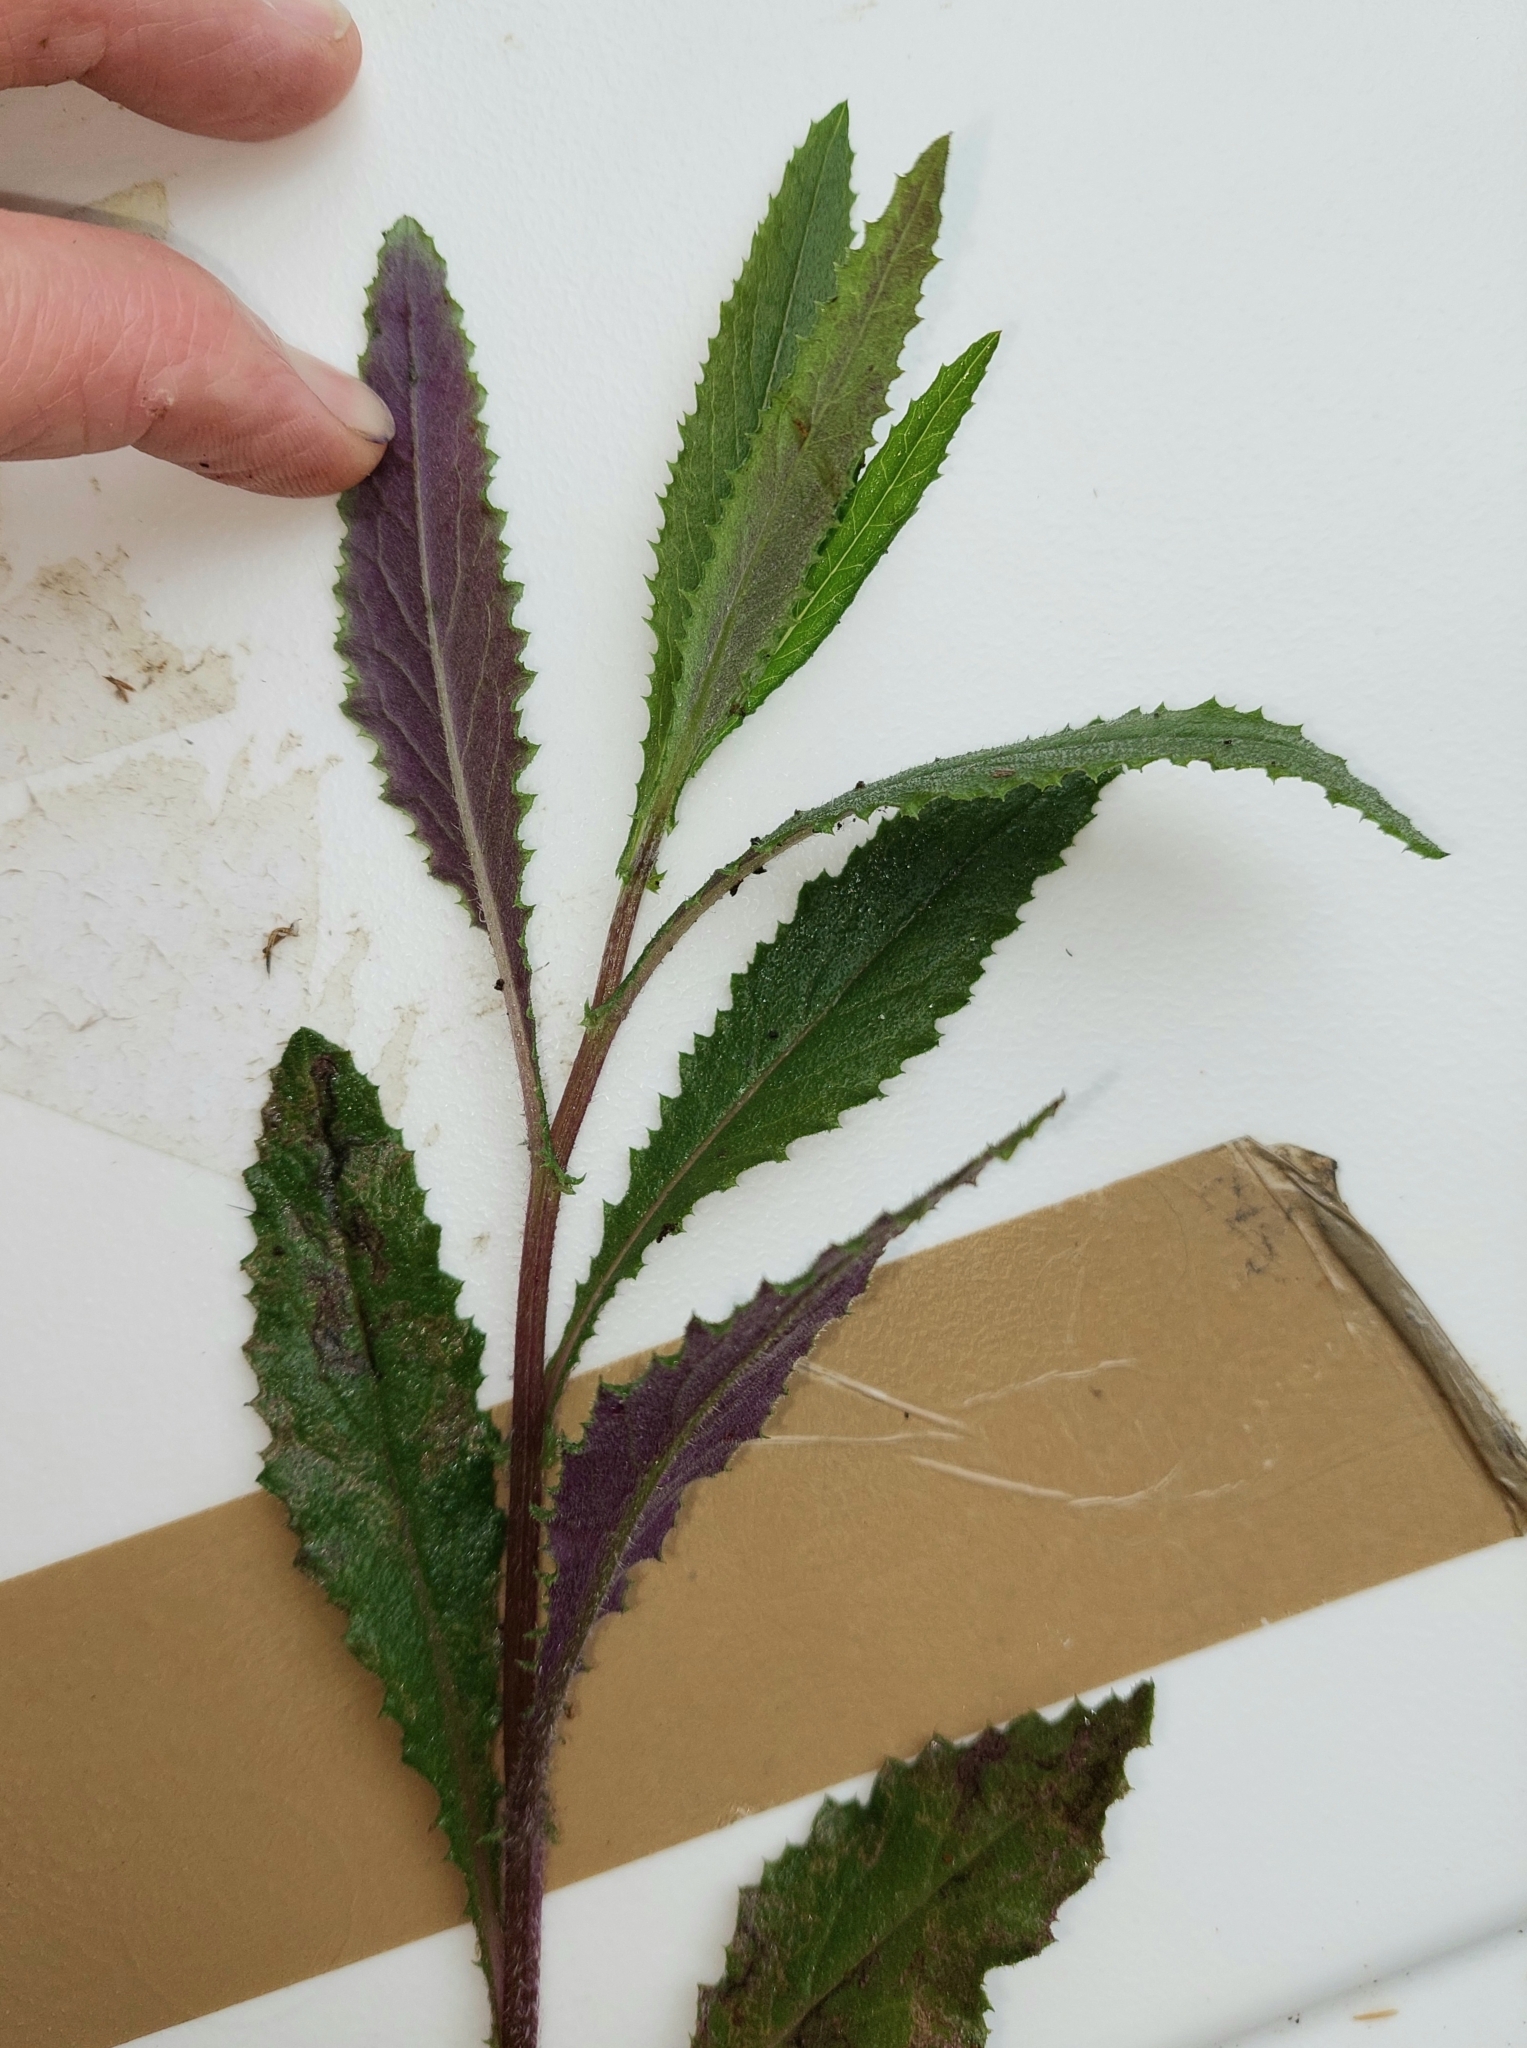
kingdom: Plantae
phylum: Tracheophyta
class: Magnoliopsida
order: Asterales
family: Asteraceae
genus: Senecio
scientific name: Senecio minimus
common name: Toothed fireweed
